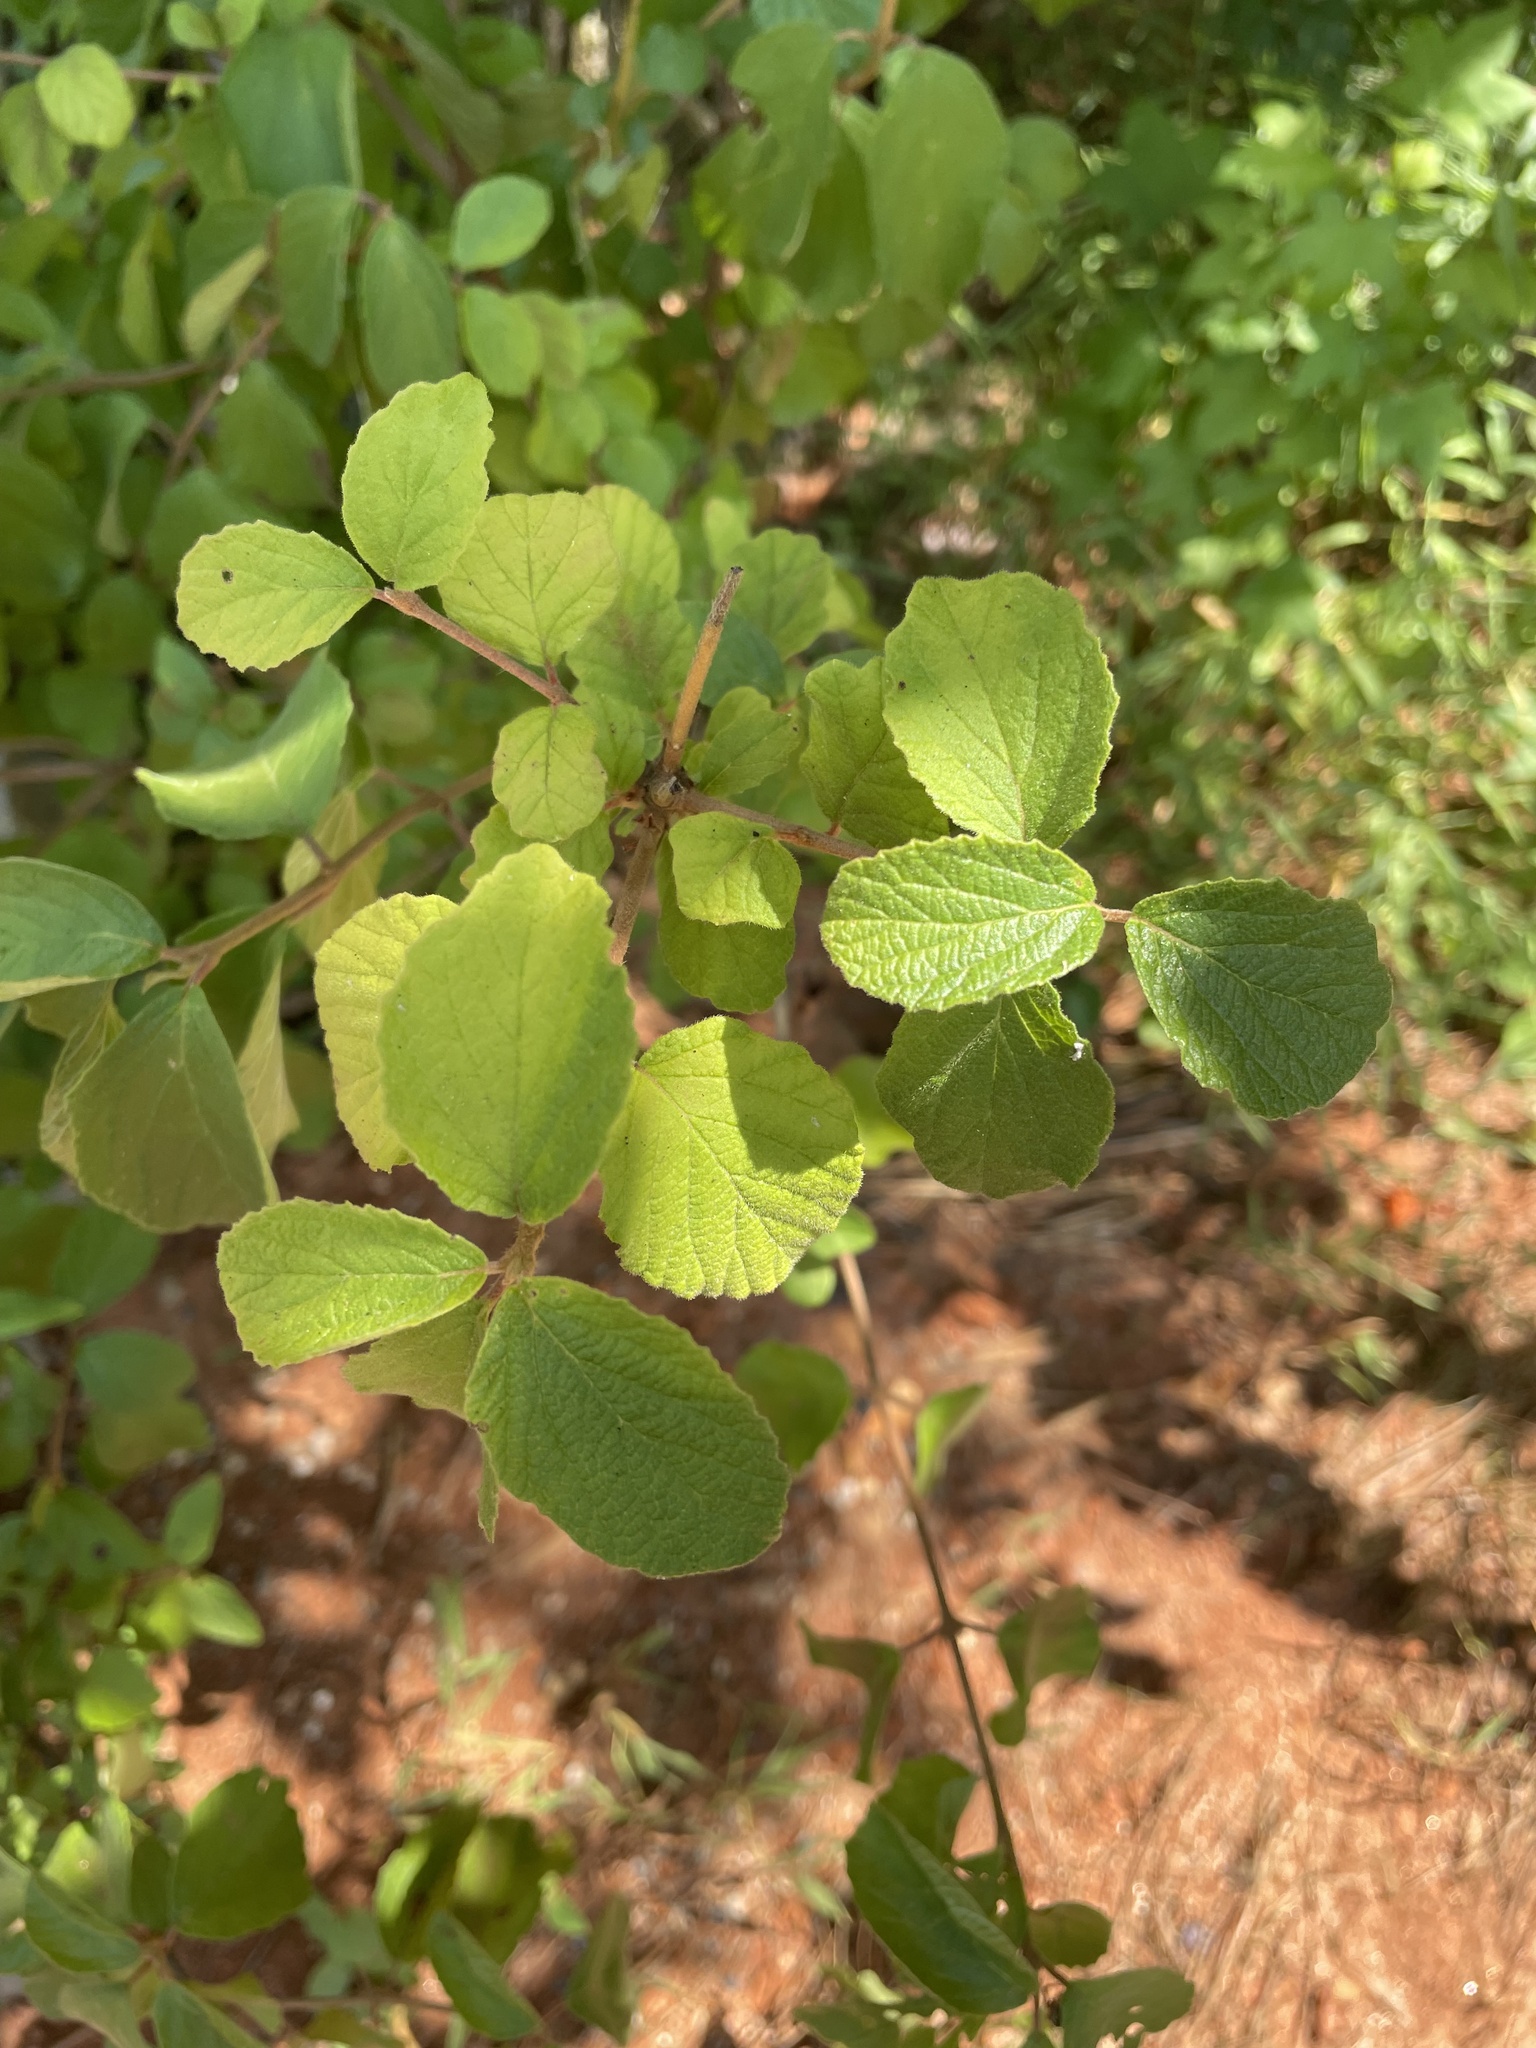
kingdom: Plantae
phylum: Tracheophyta
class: Magnoliopsida
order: Dipsacales
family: Viburnaceae
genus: Viburnum
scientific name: Viburnum dilatatum
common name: Linden arrowwood
